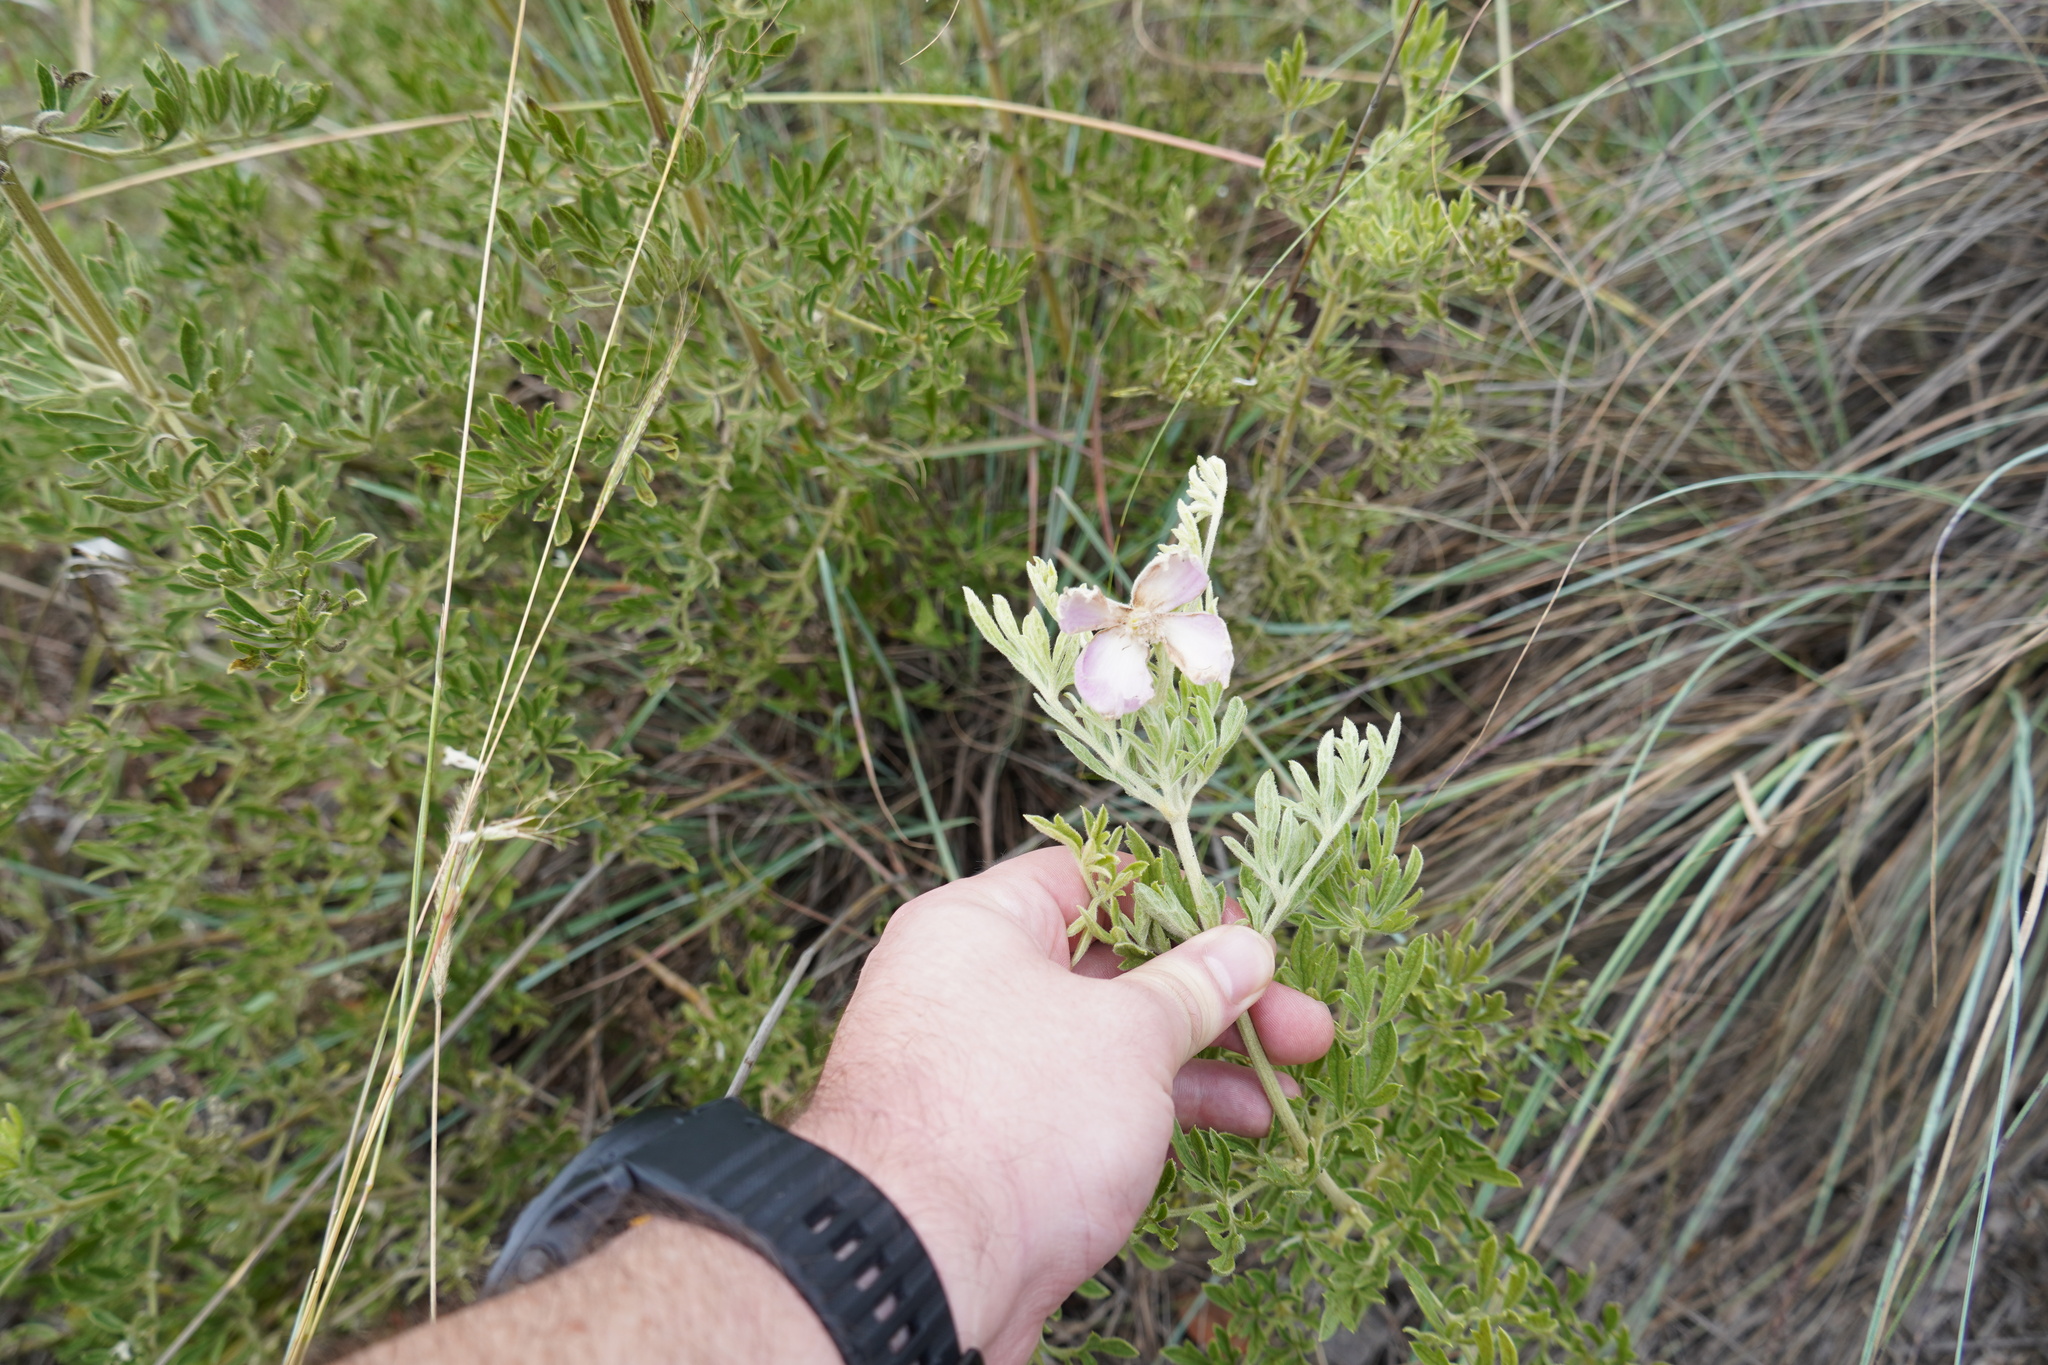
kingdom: Plantae
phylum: Tracheophyta
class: Magnoliopsida
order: Ranunculales
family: Ranunculaceae
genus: Clematis
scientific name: Clematis villosa
